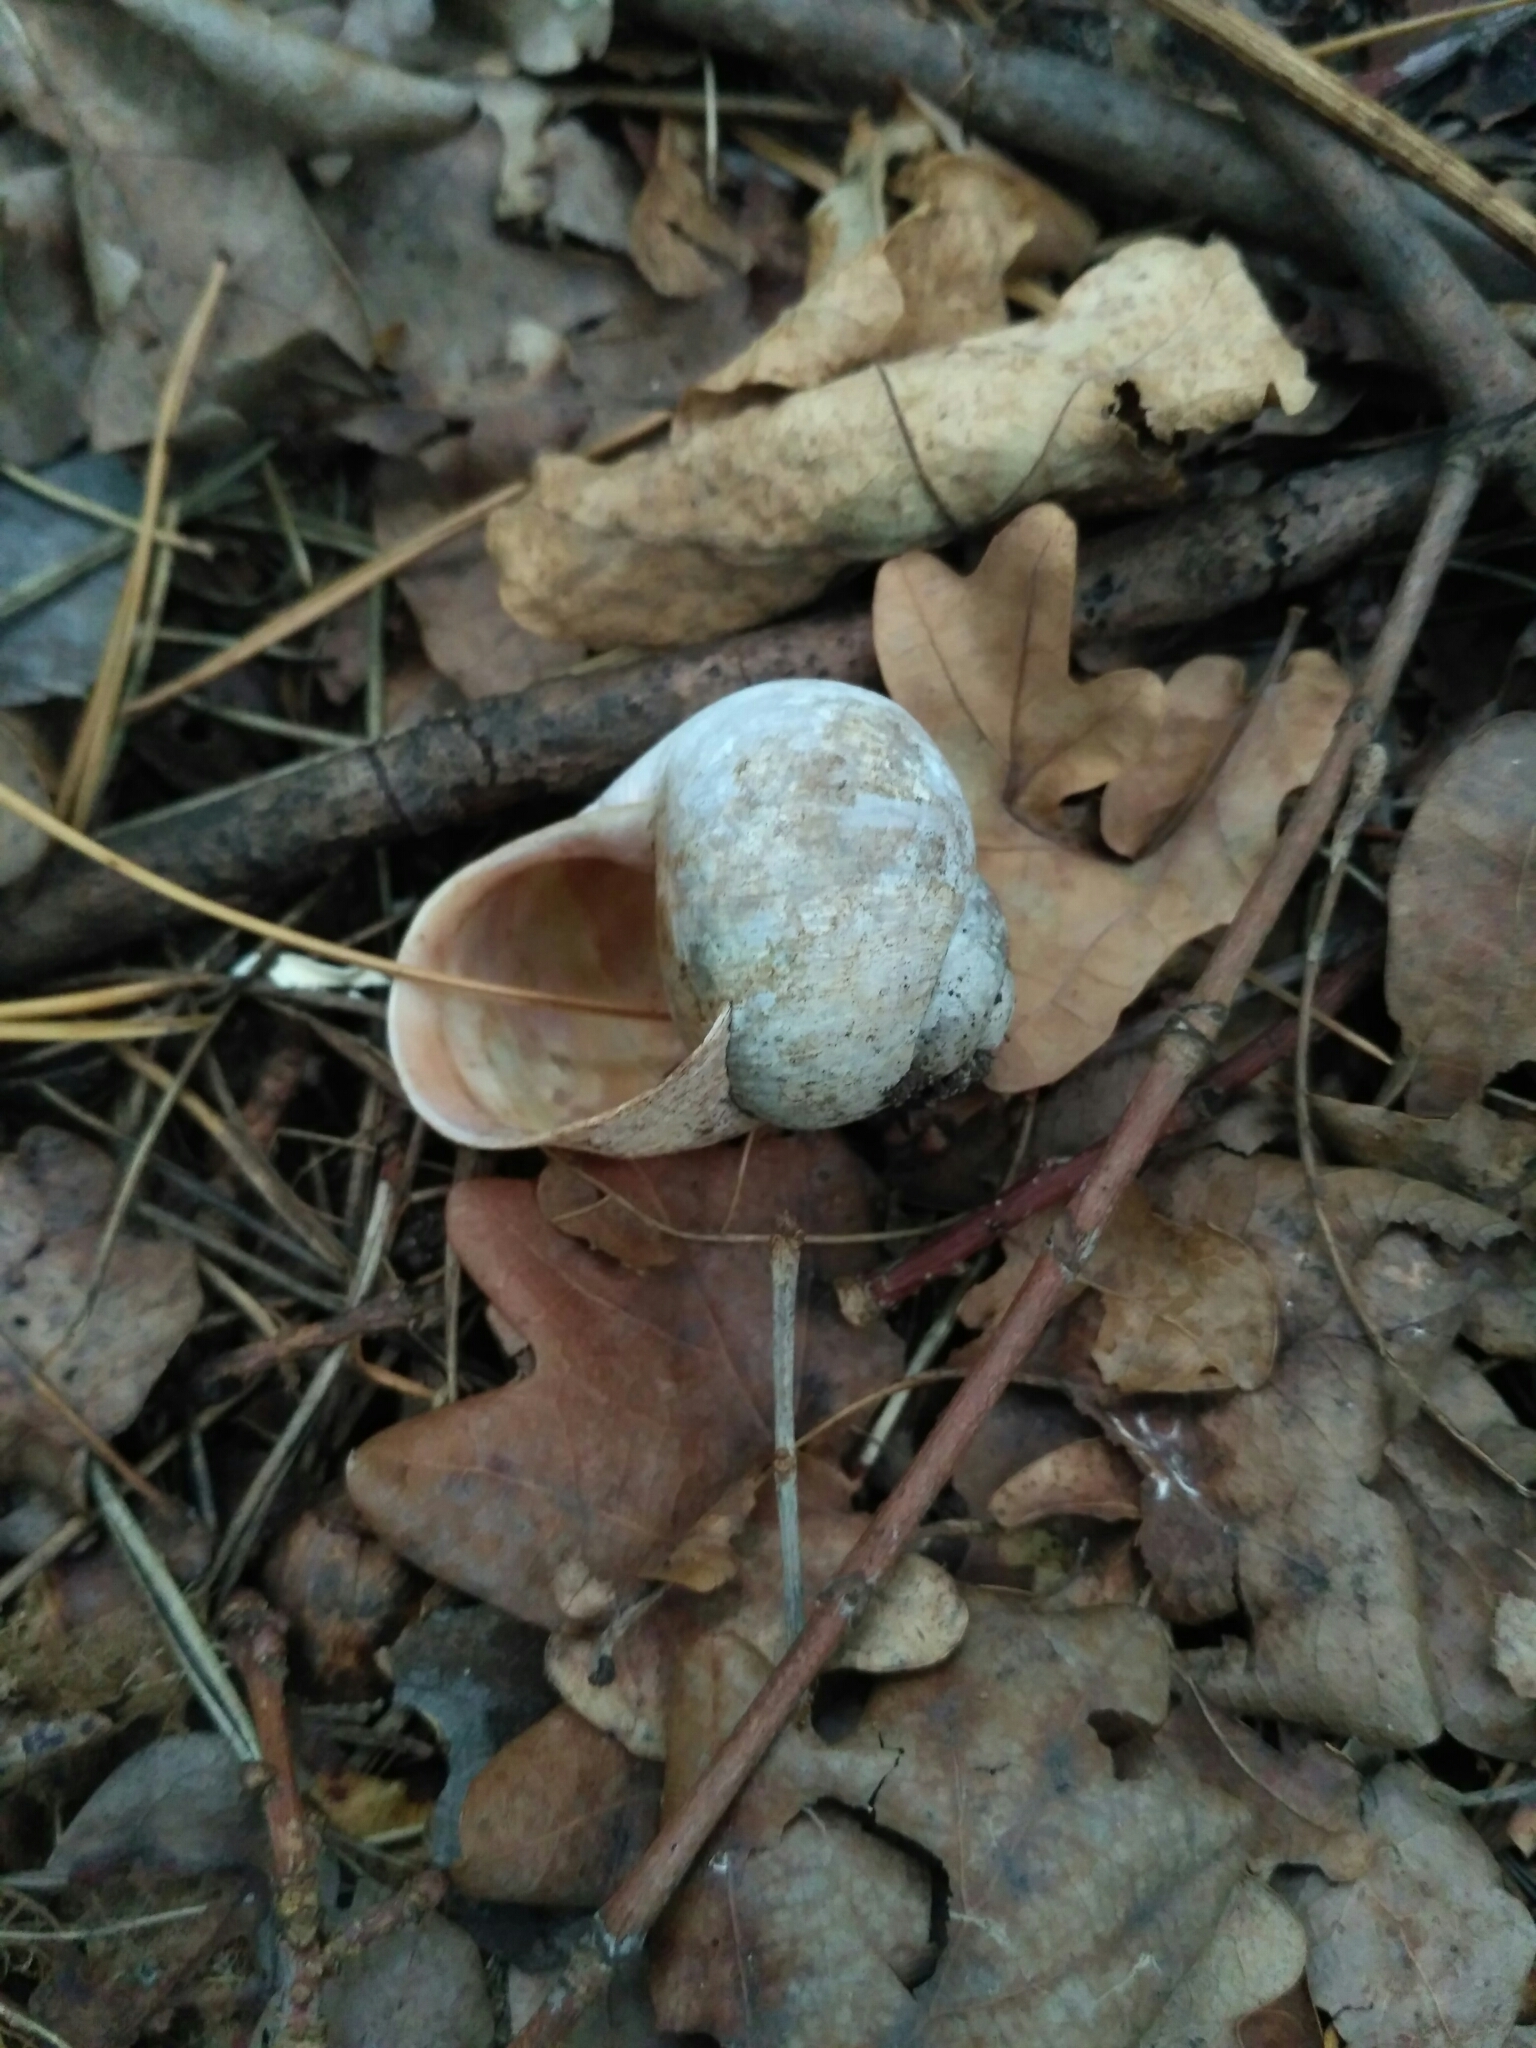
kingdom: Animalia
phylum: Mollusca
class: Gastropoda
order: Stylommatophora
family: Helicidae
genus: Helix
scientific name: Helix pomatia
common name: Roman snail
